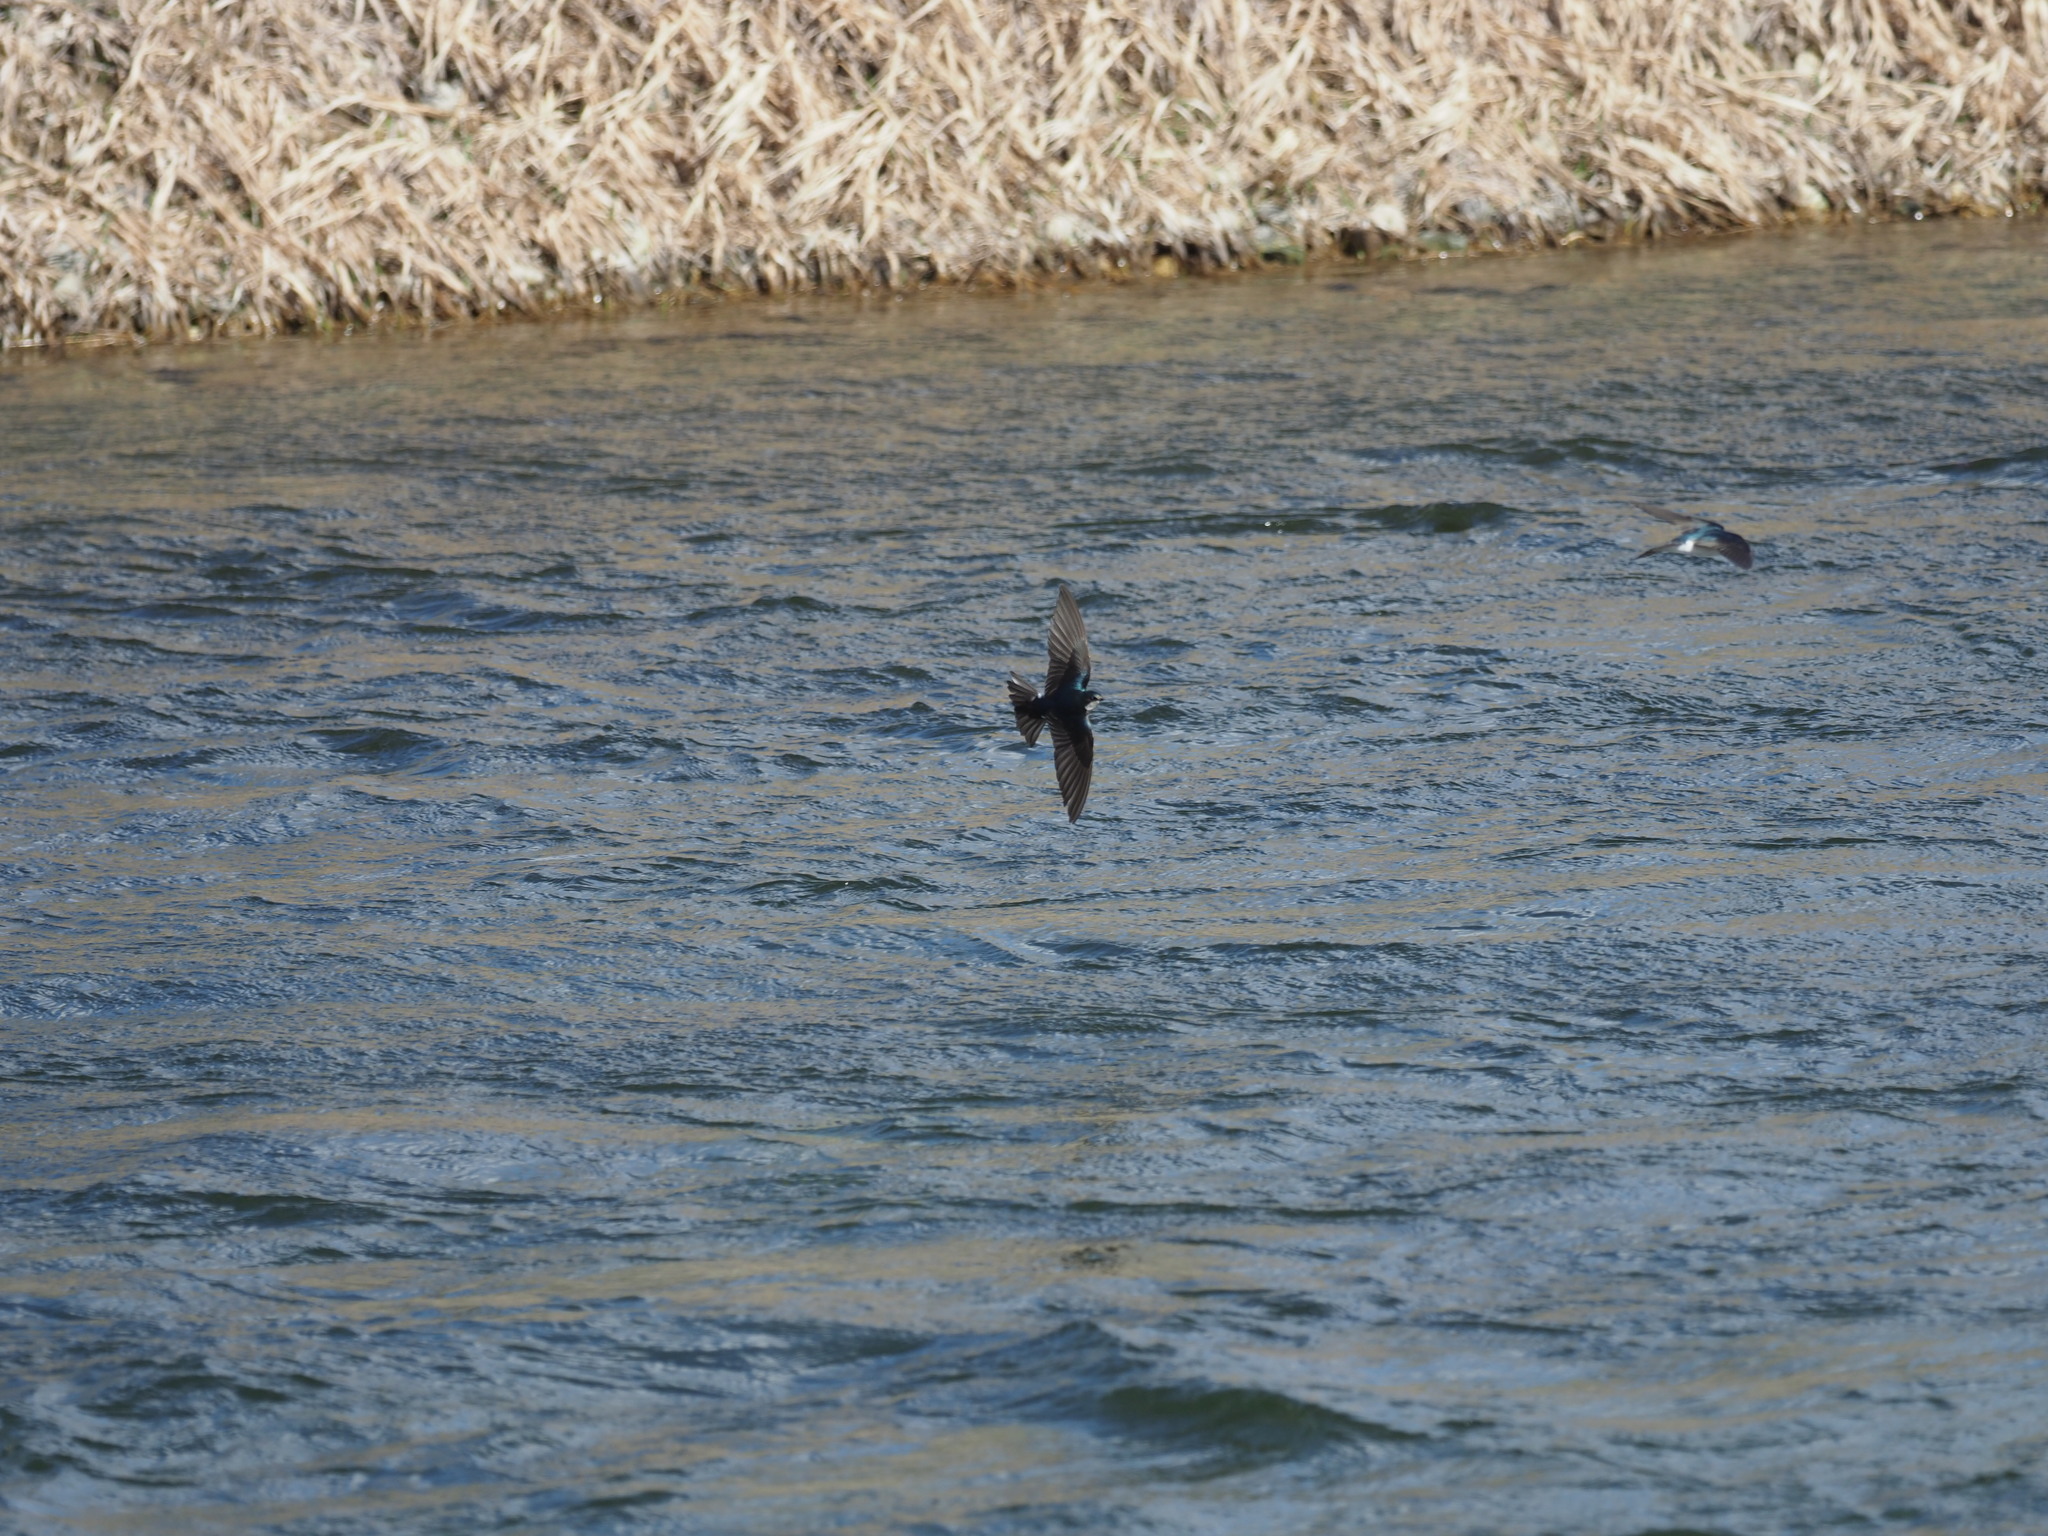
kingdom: Animalia
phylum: Chordata
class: Aves
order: Passeriformes
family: Hirundinidae
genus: Tachycineta
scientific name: Tachycineta bicolor
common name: Tree swallow
